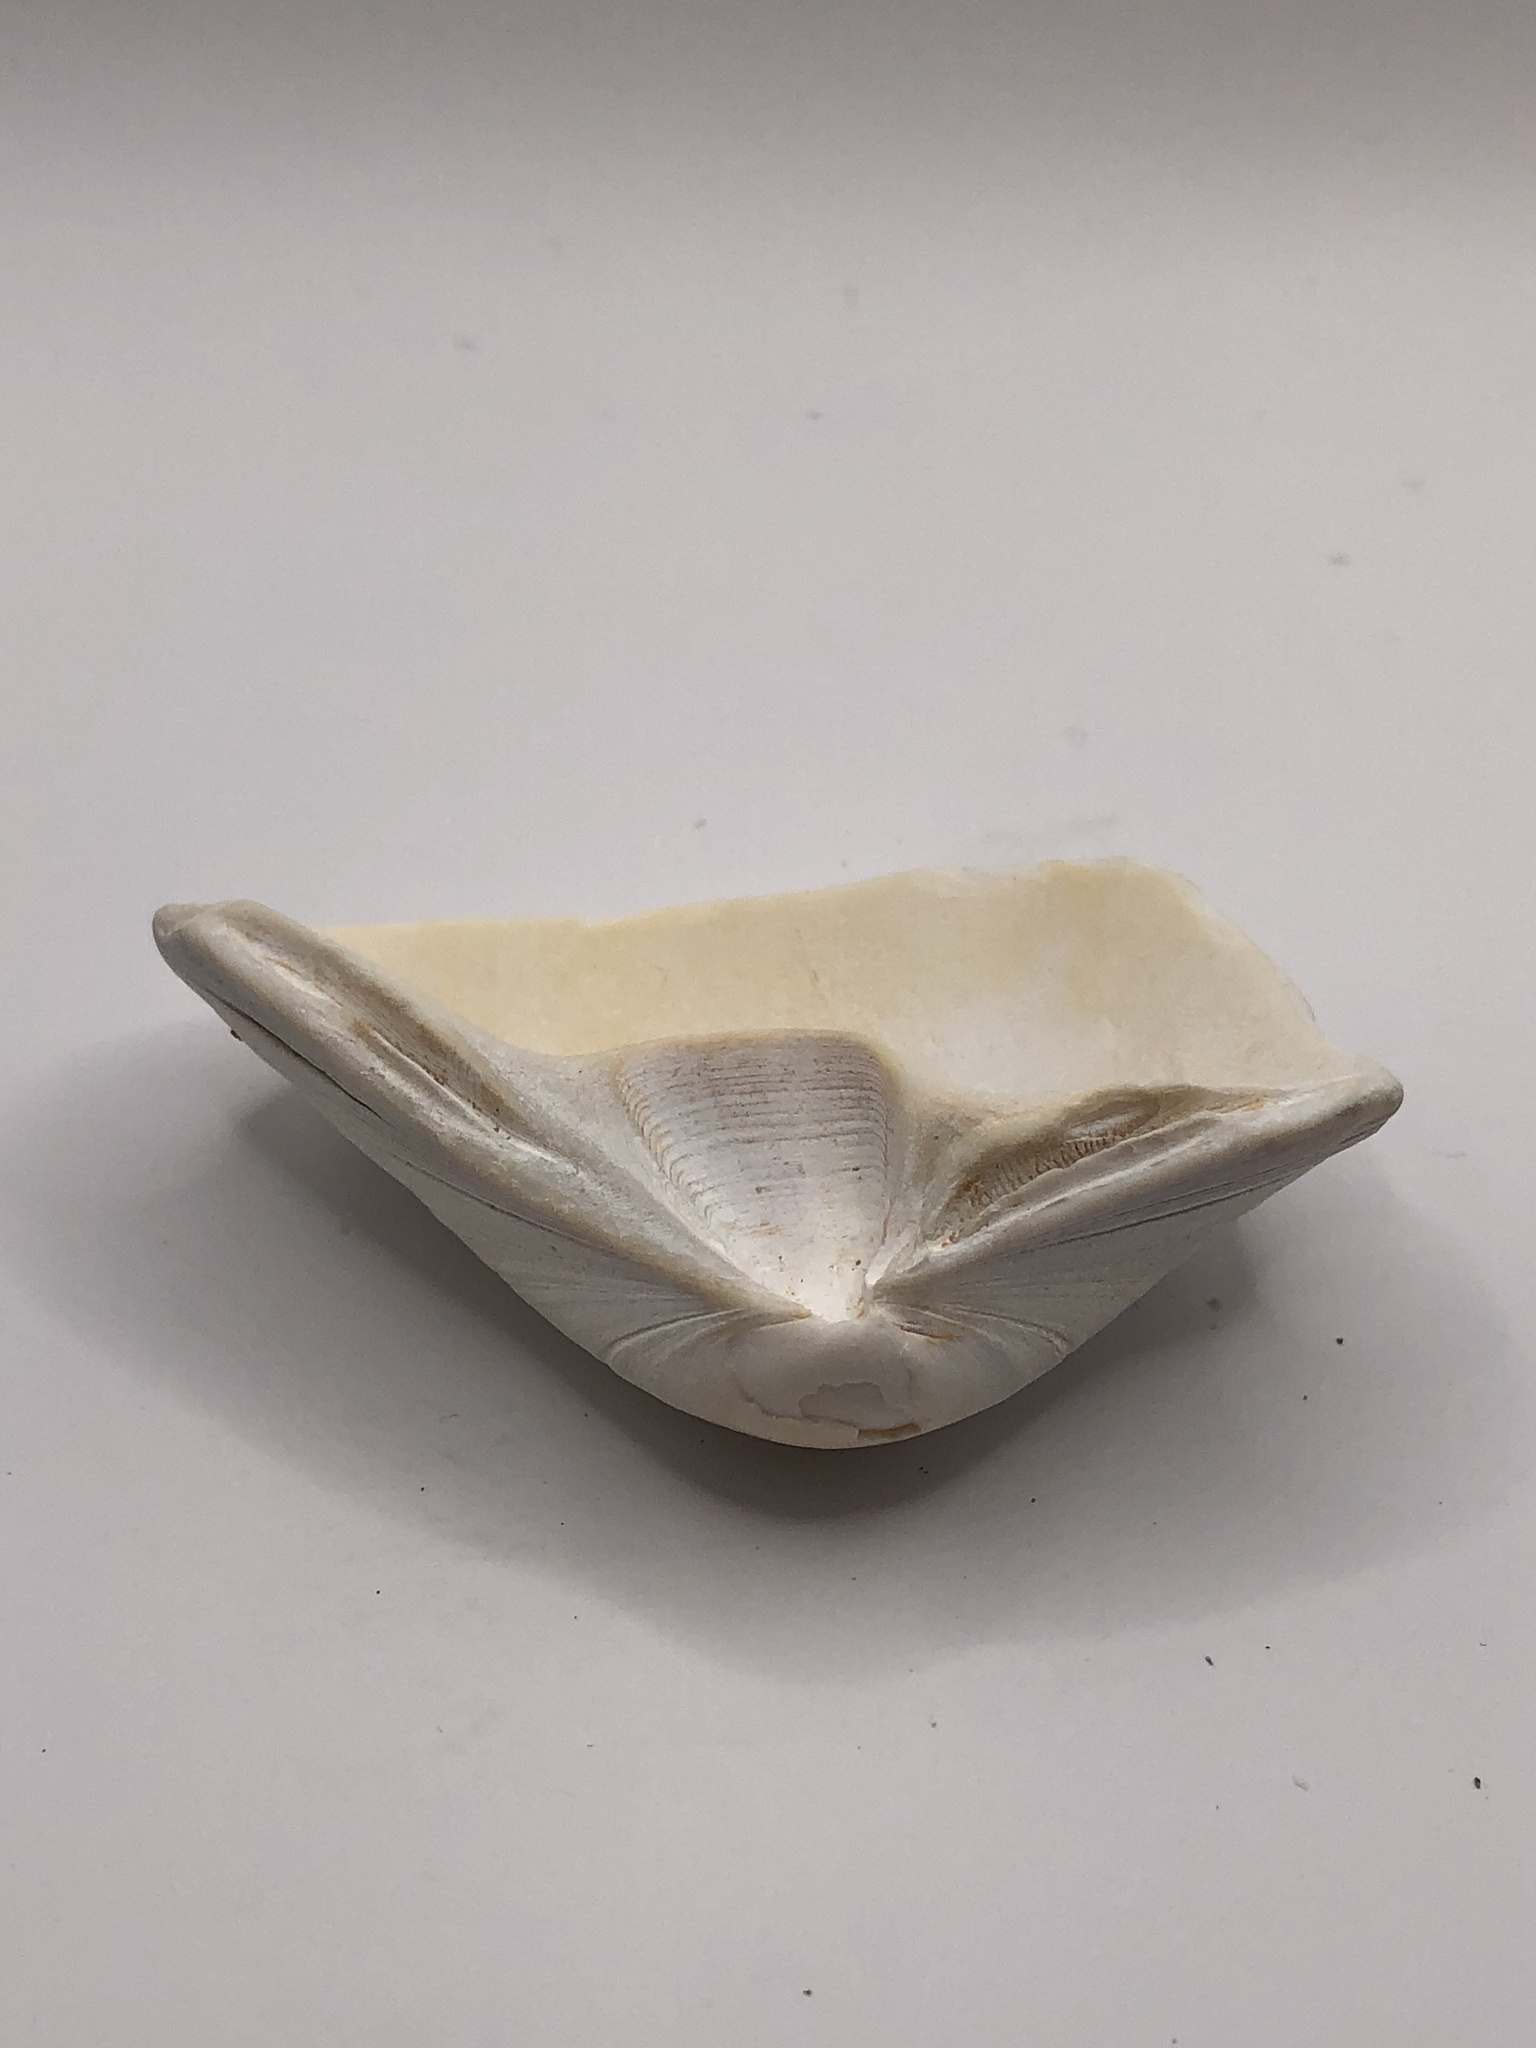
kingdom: Animalia
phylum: Mollusca
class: Bivalvia
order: Venerida
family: Mactridae
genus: Spisula
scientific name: Spisula solidissima
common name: Atlantic surf clam
